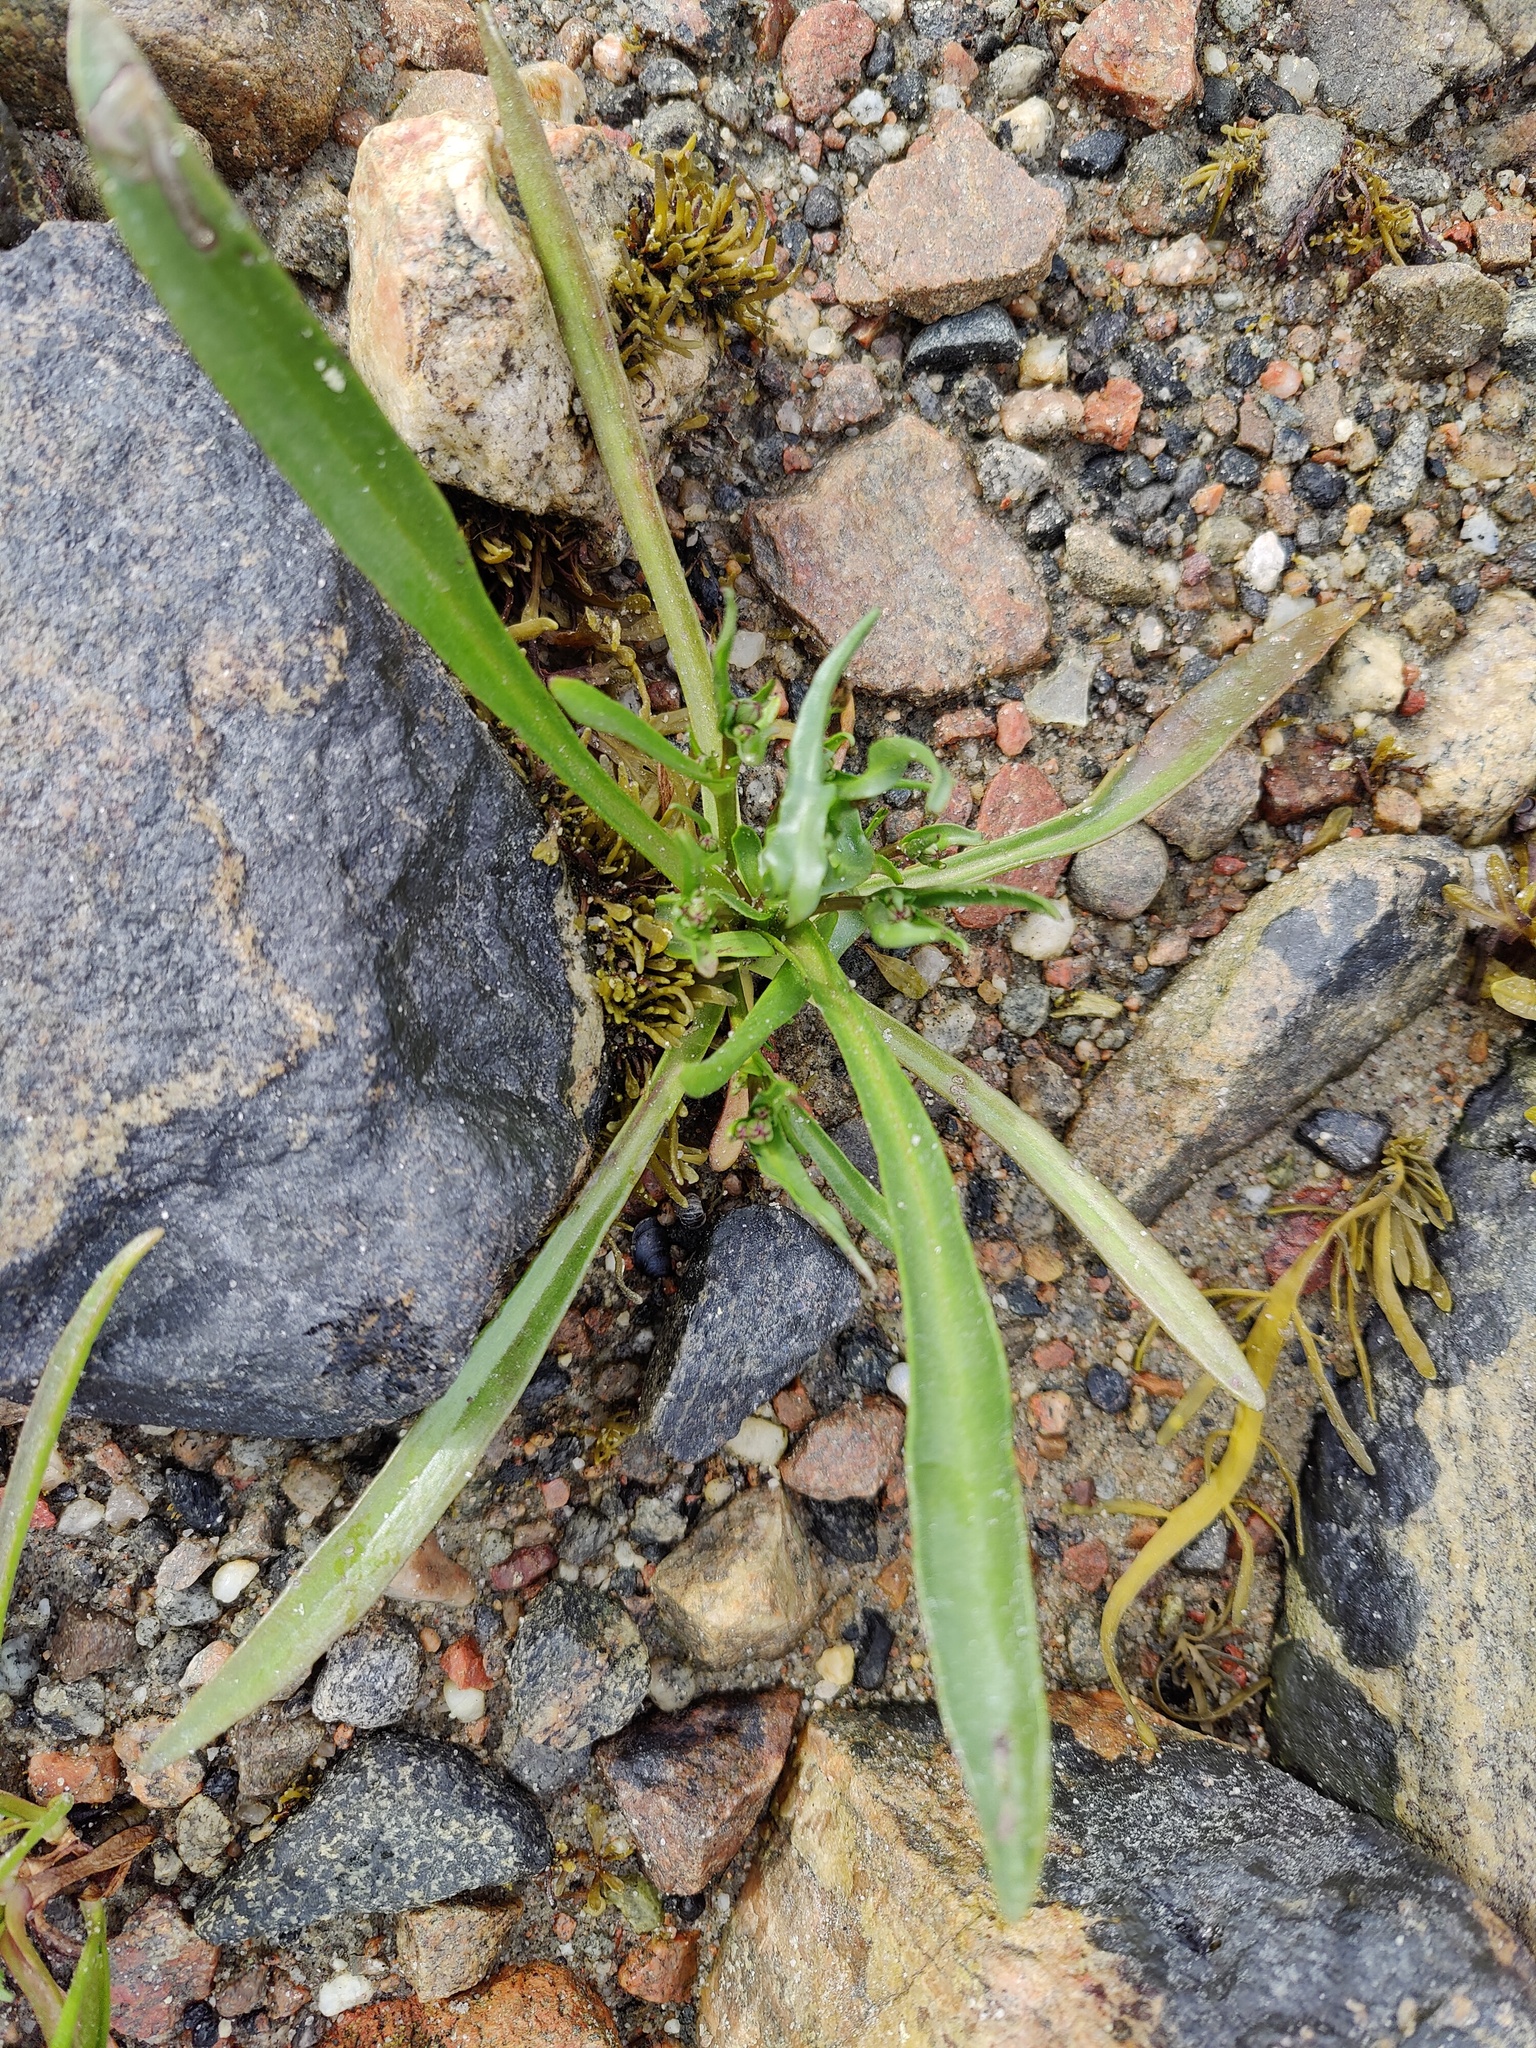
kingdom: Plantae
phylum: Tracheophyta
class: Magnoliopsida
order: Asterales
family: Asteraceae
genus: Tripolium
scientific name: Tripolium pannonicum
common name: Sea aster
